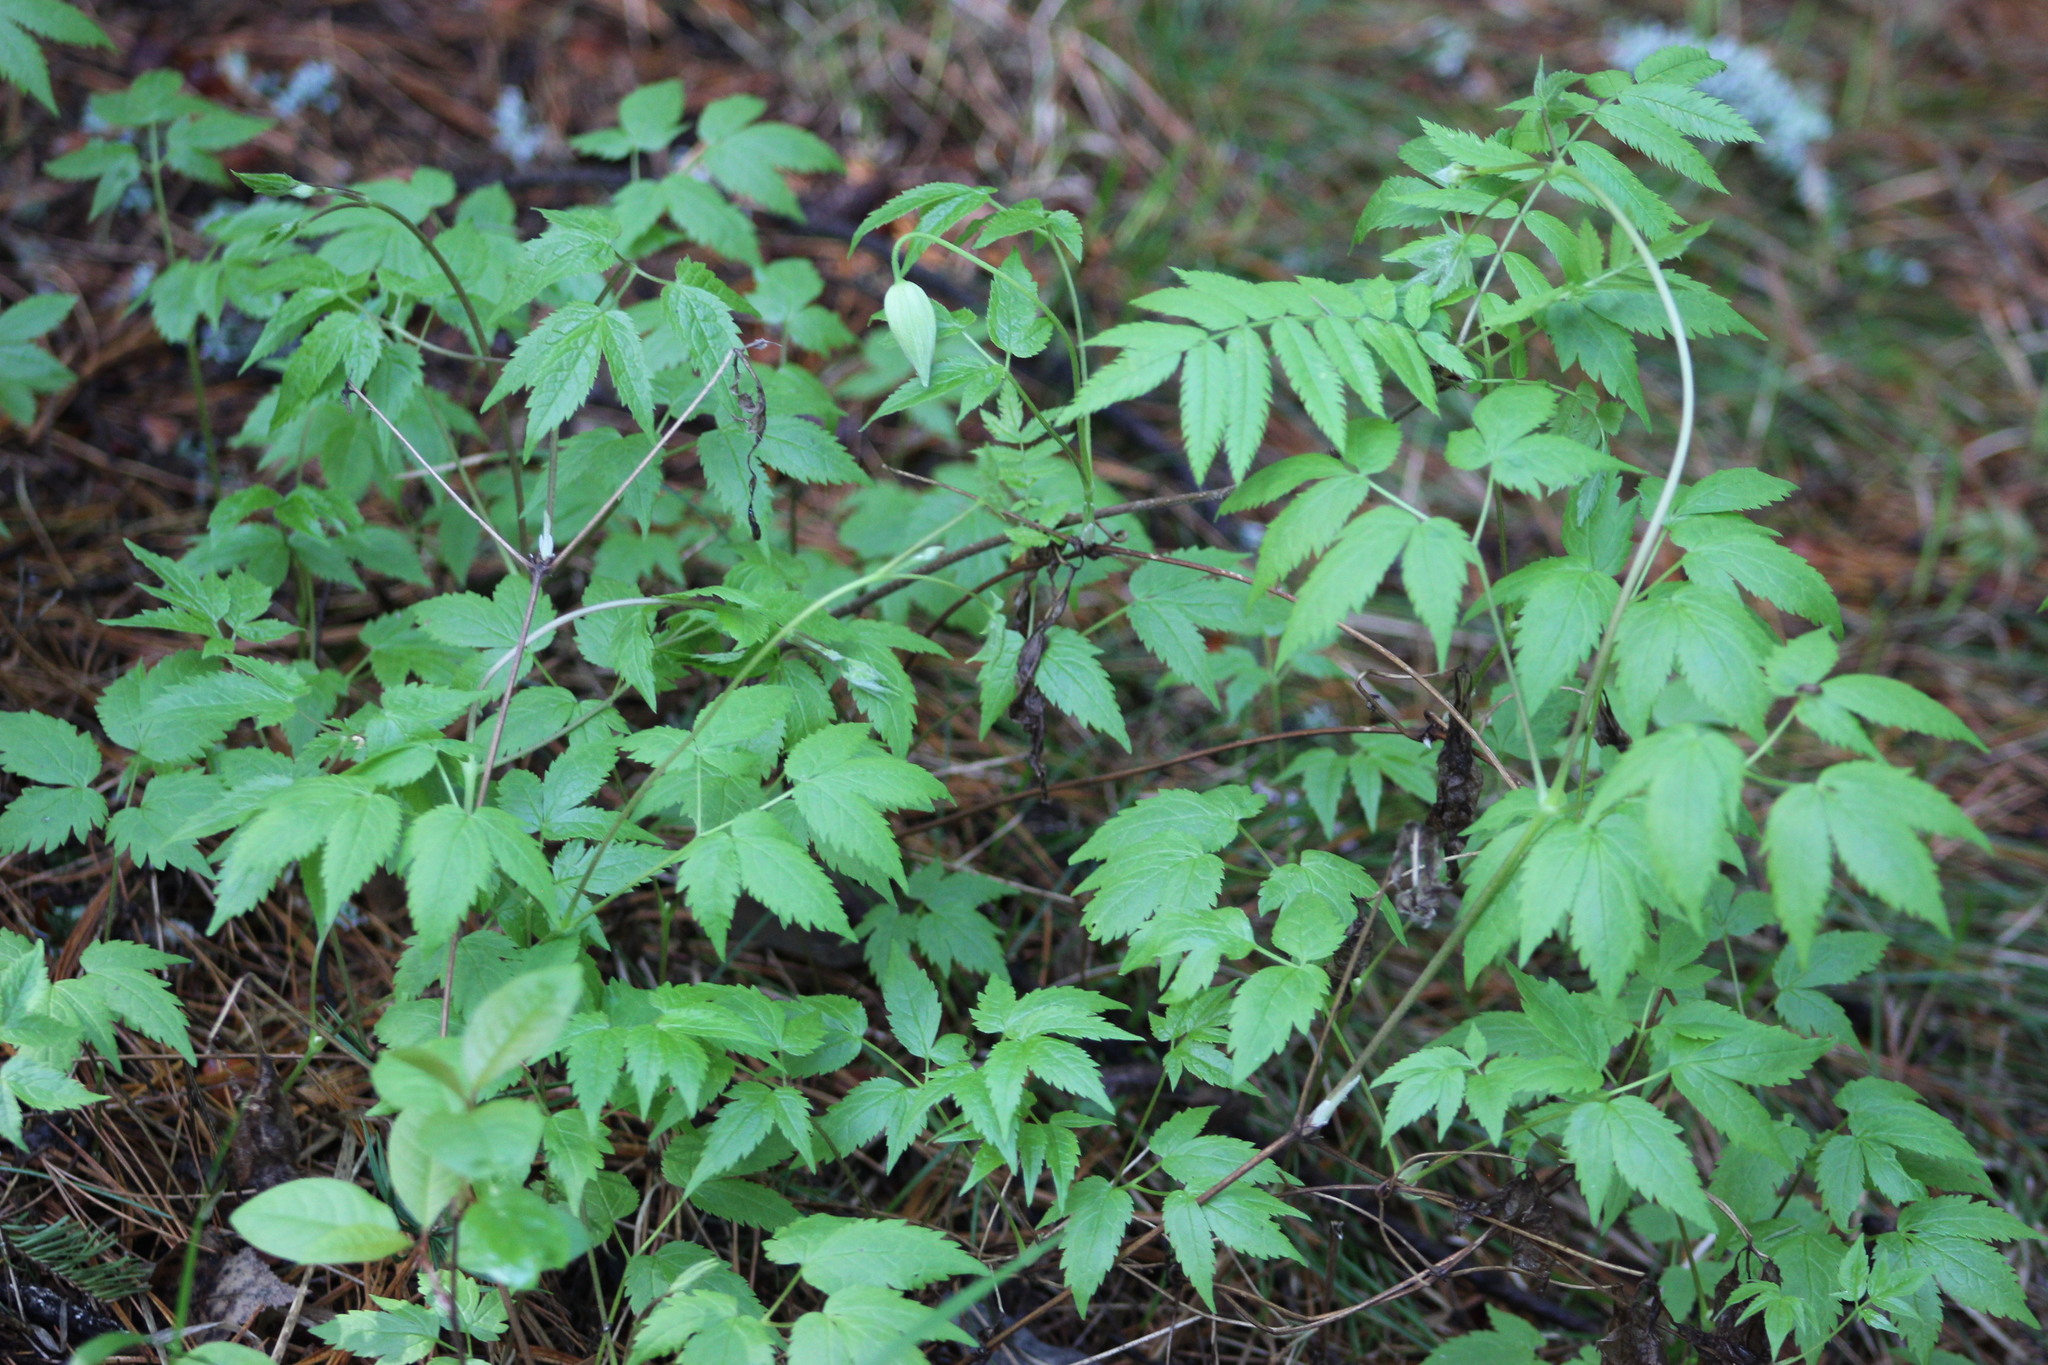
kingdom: Plantae
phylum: Tracheophyta
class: Magnoliopsida
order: Ranunculales
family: Ranunculaceae
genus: Clematis
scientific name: Clematis sibirica
